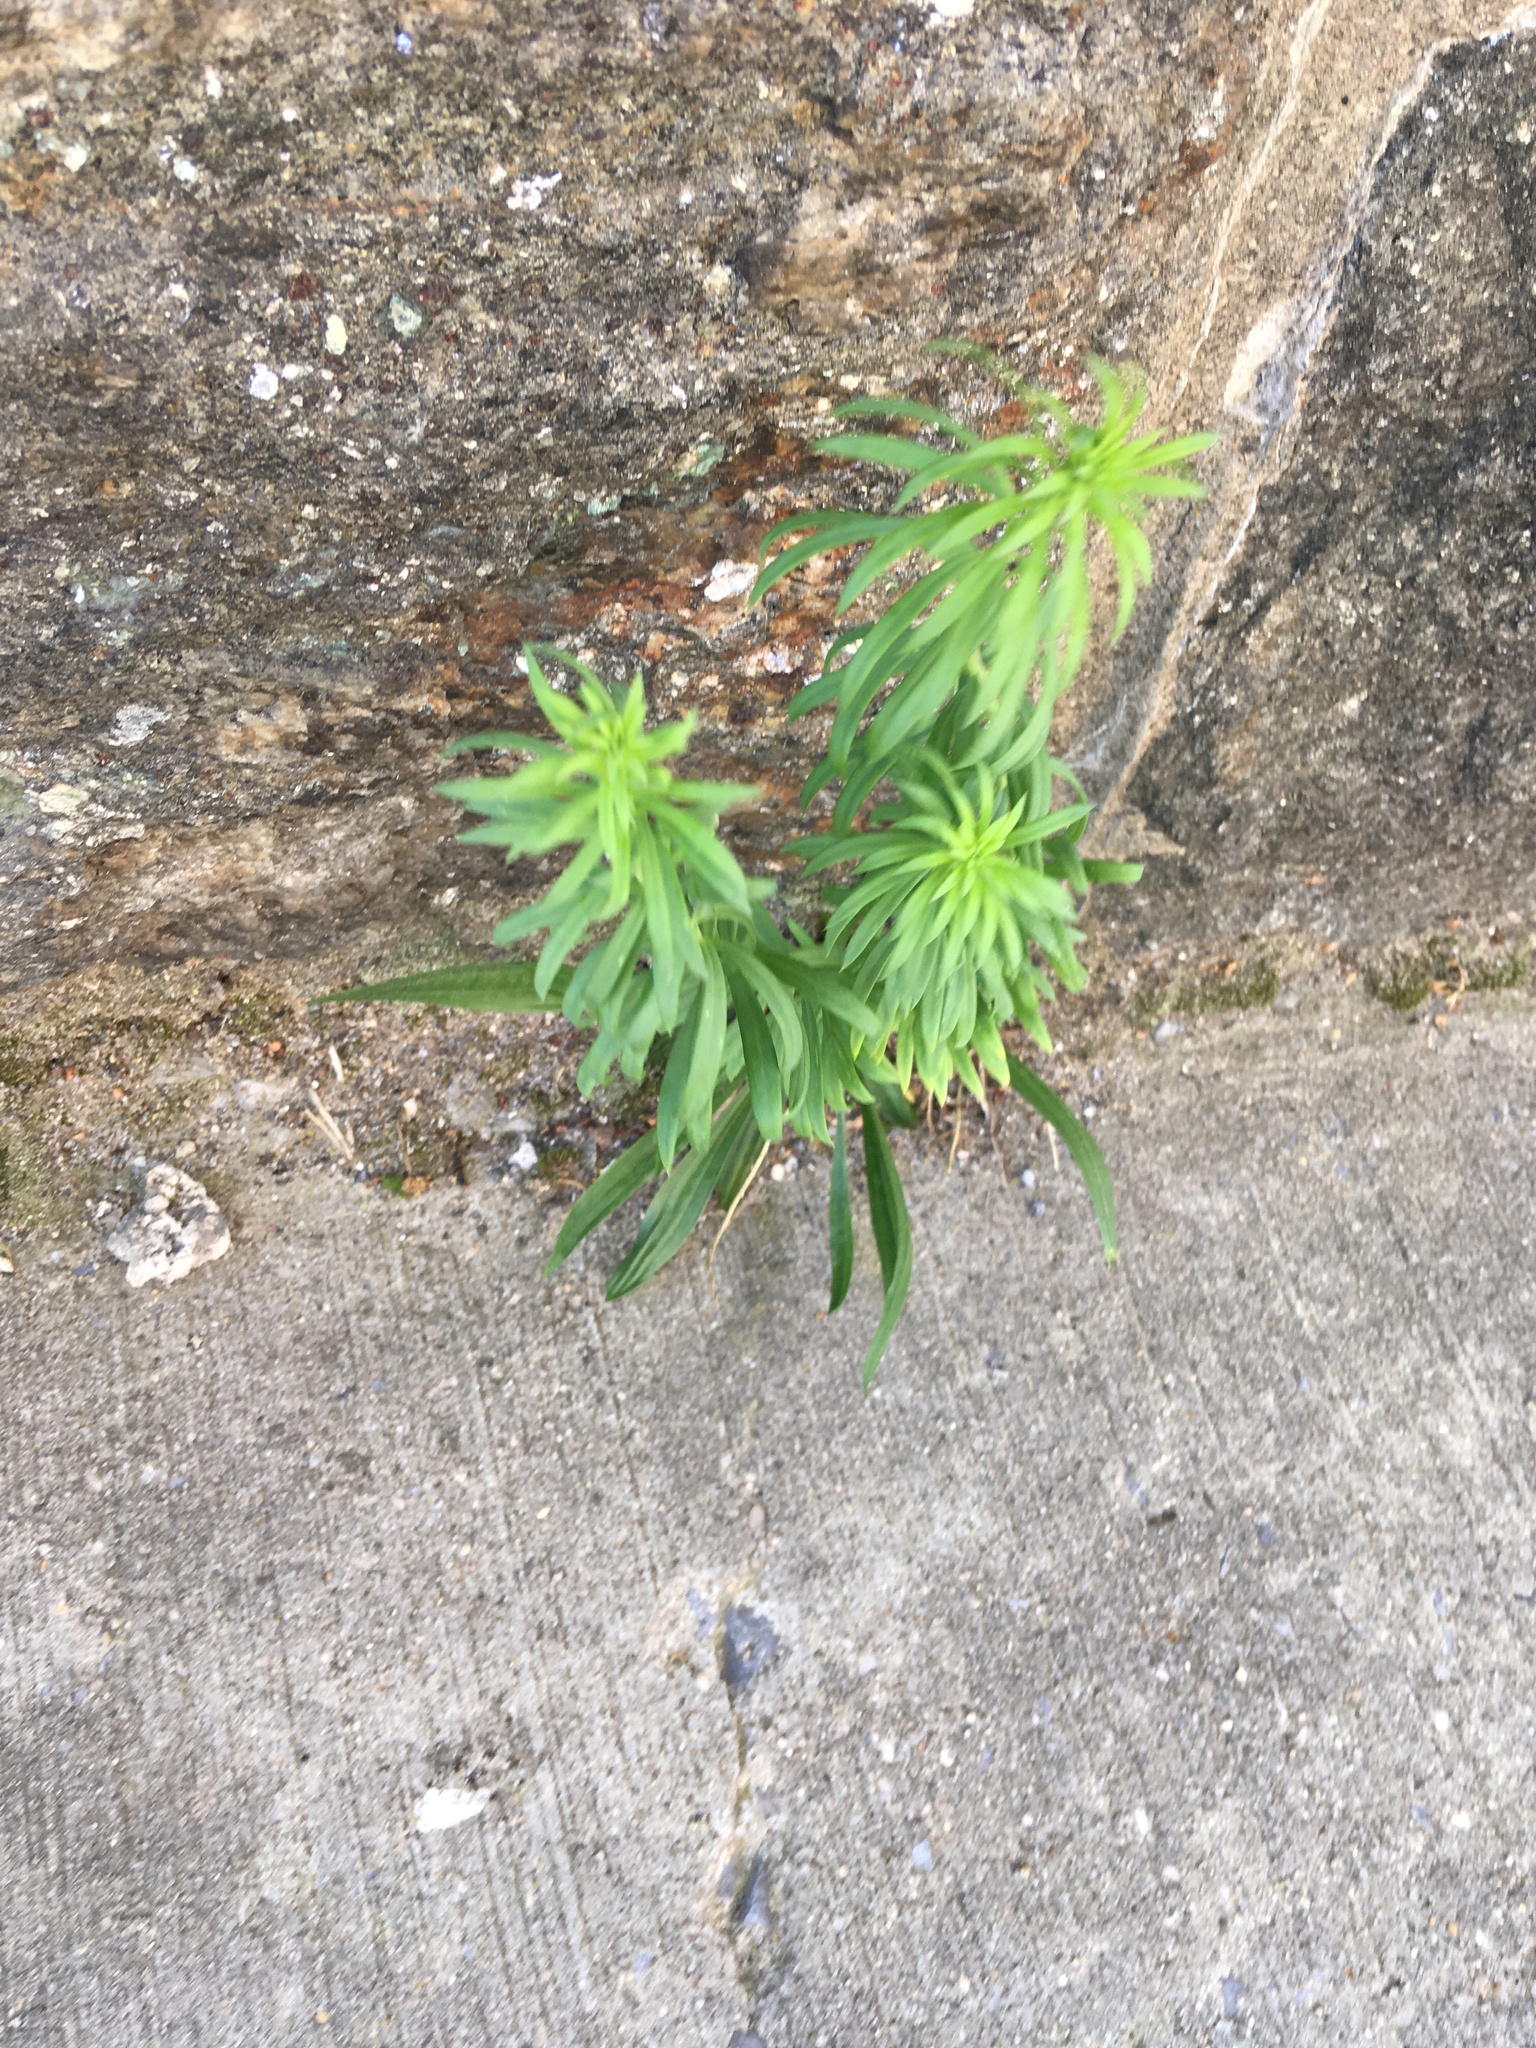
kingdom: Plantae
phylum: Tracheophyta
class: Magnoliopsida
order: Asterales
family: Asteraceae
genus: Erigeron
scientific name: Erigeron canadensis
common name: Canadian fleabane
